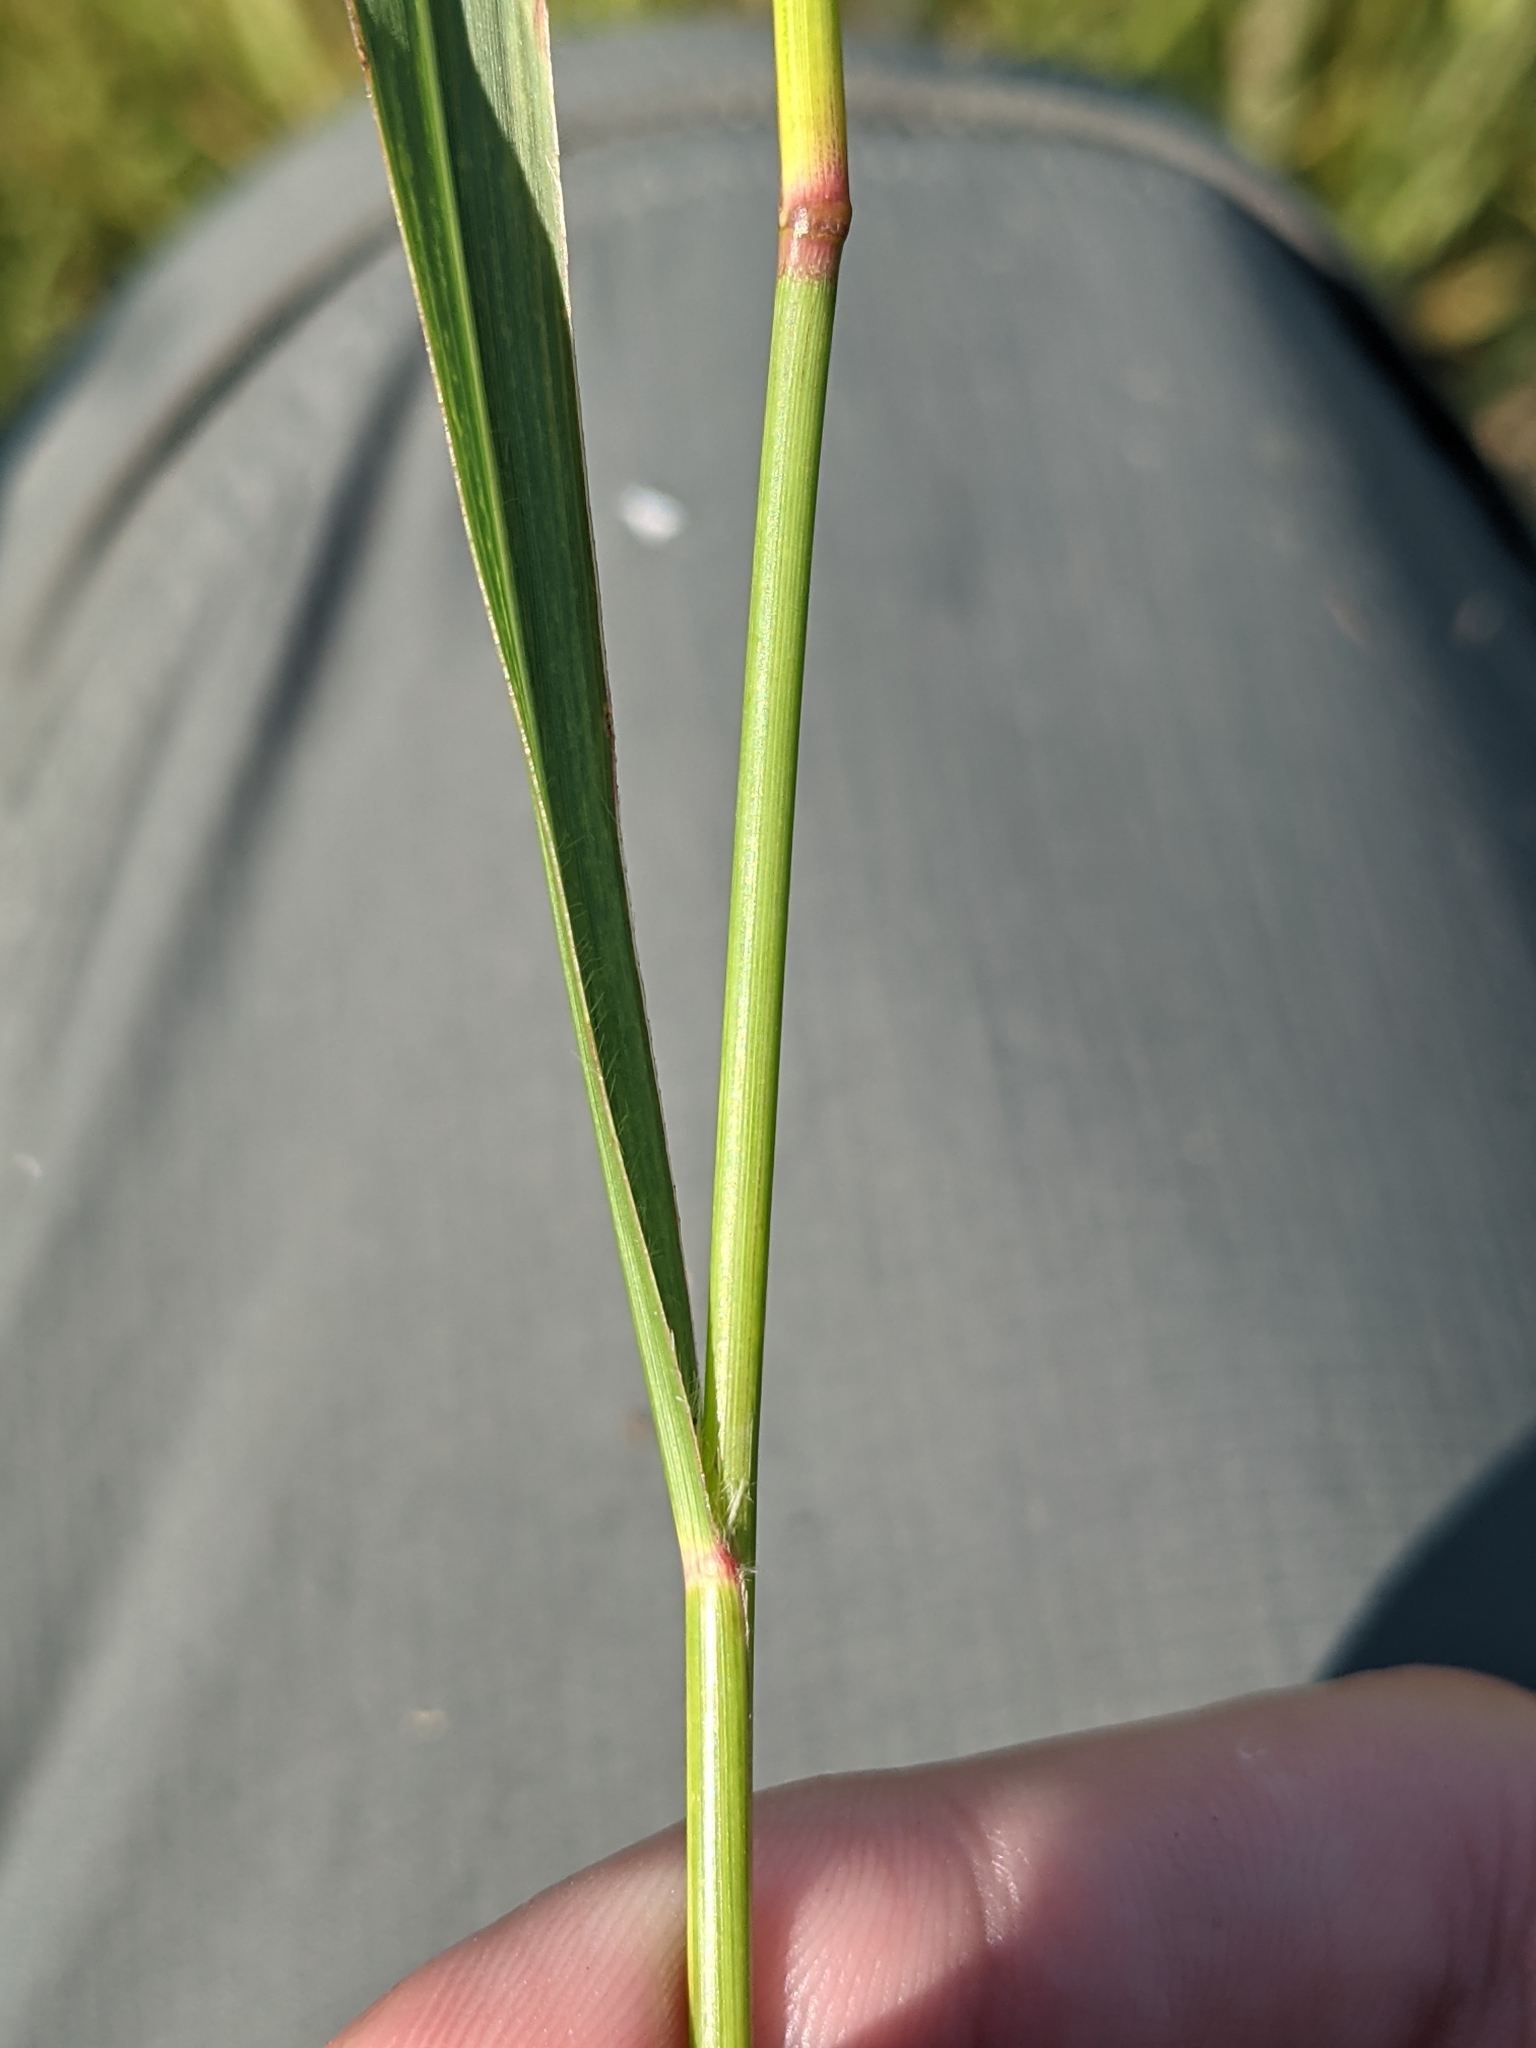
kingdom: Plantae
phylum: Tracheophyta
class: Liliopsida
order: Poales
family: Poaceae
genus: Panicum
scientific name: Panicum virgatum
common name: Switchgrass
